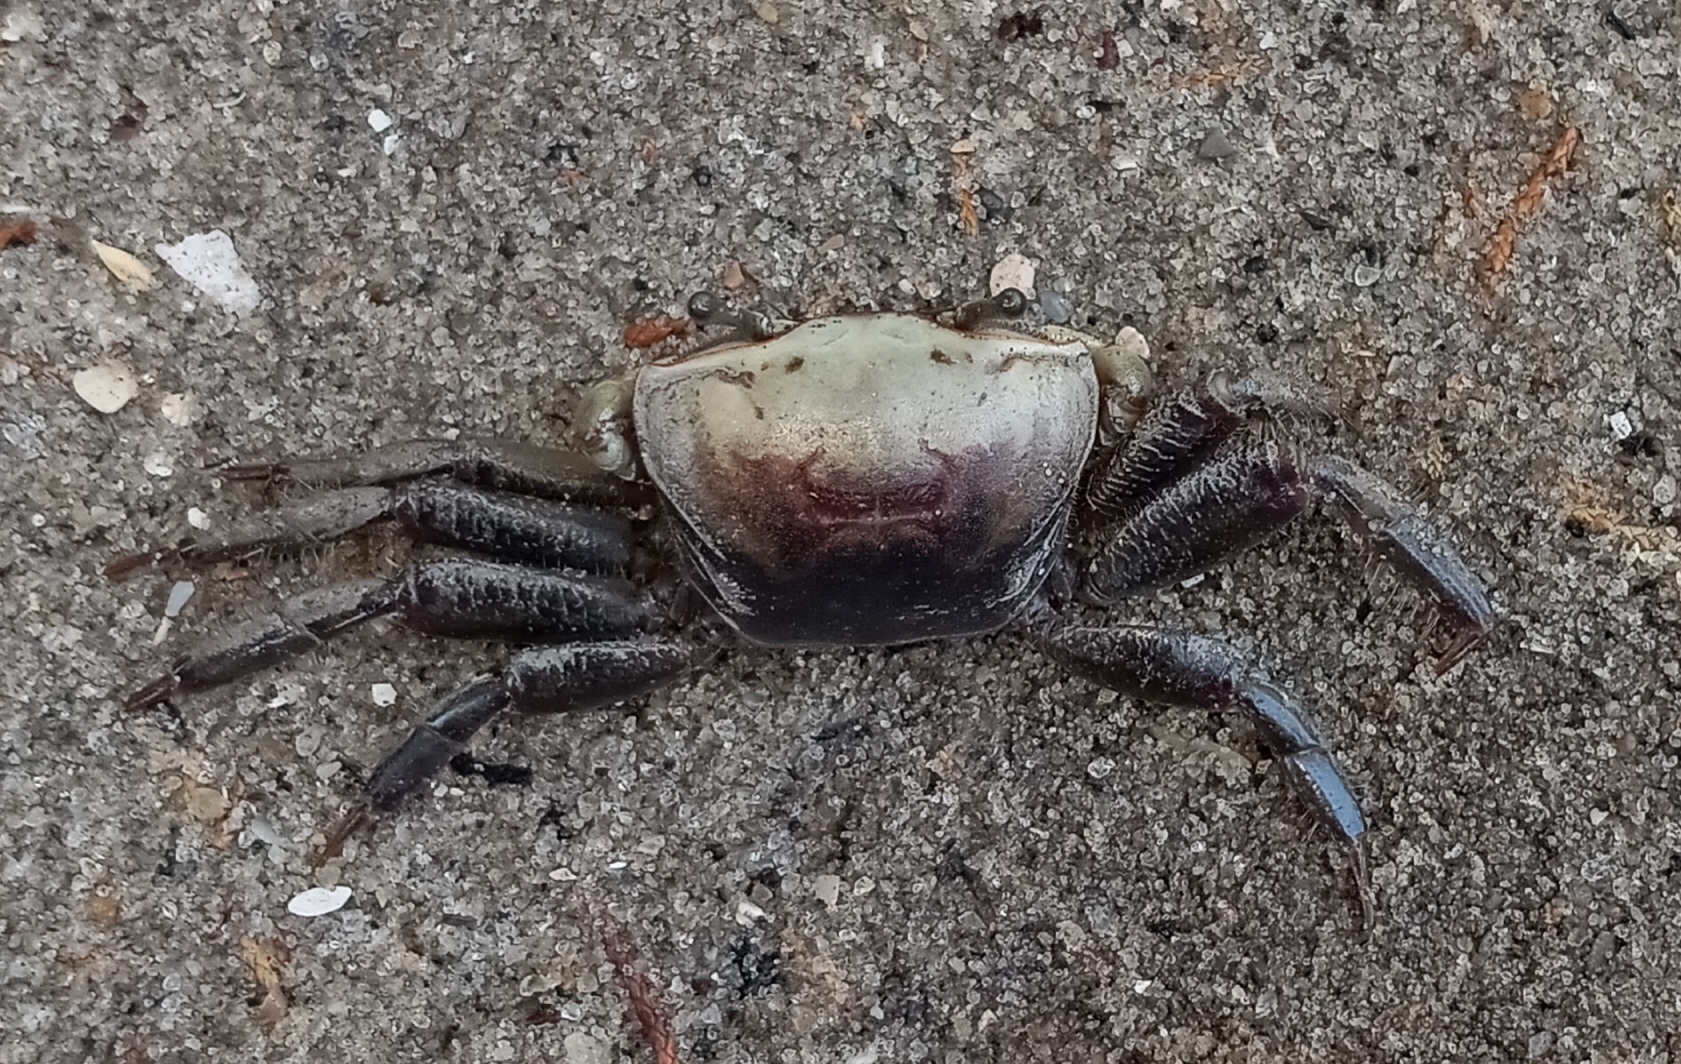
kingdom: Animalia
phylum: Arthropoda
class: Malacostraca
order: Decapoda
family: Ocypodidae
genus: Minuca
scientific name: Minuca minax
